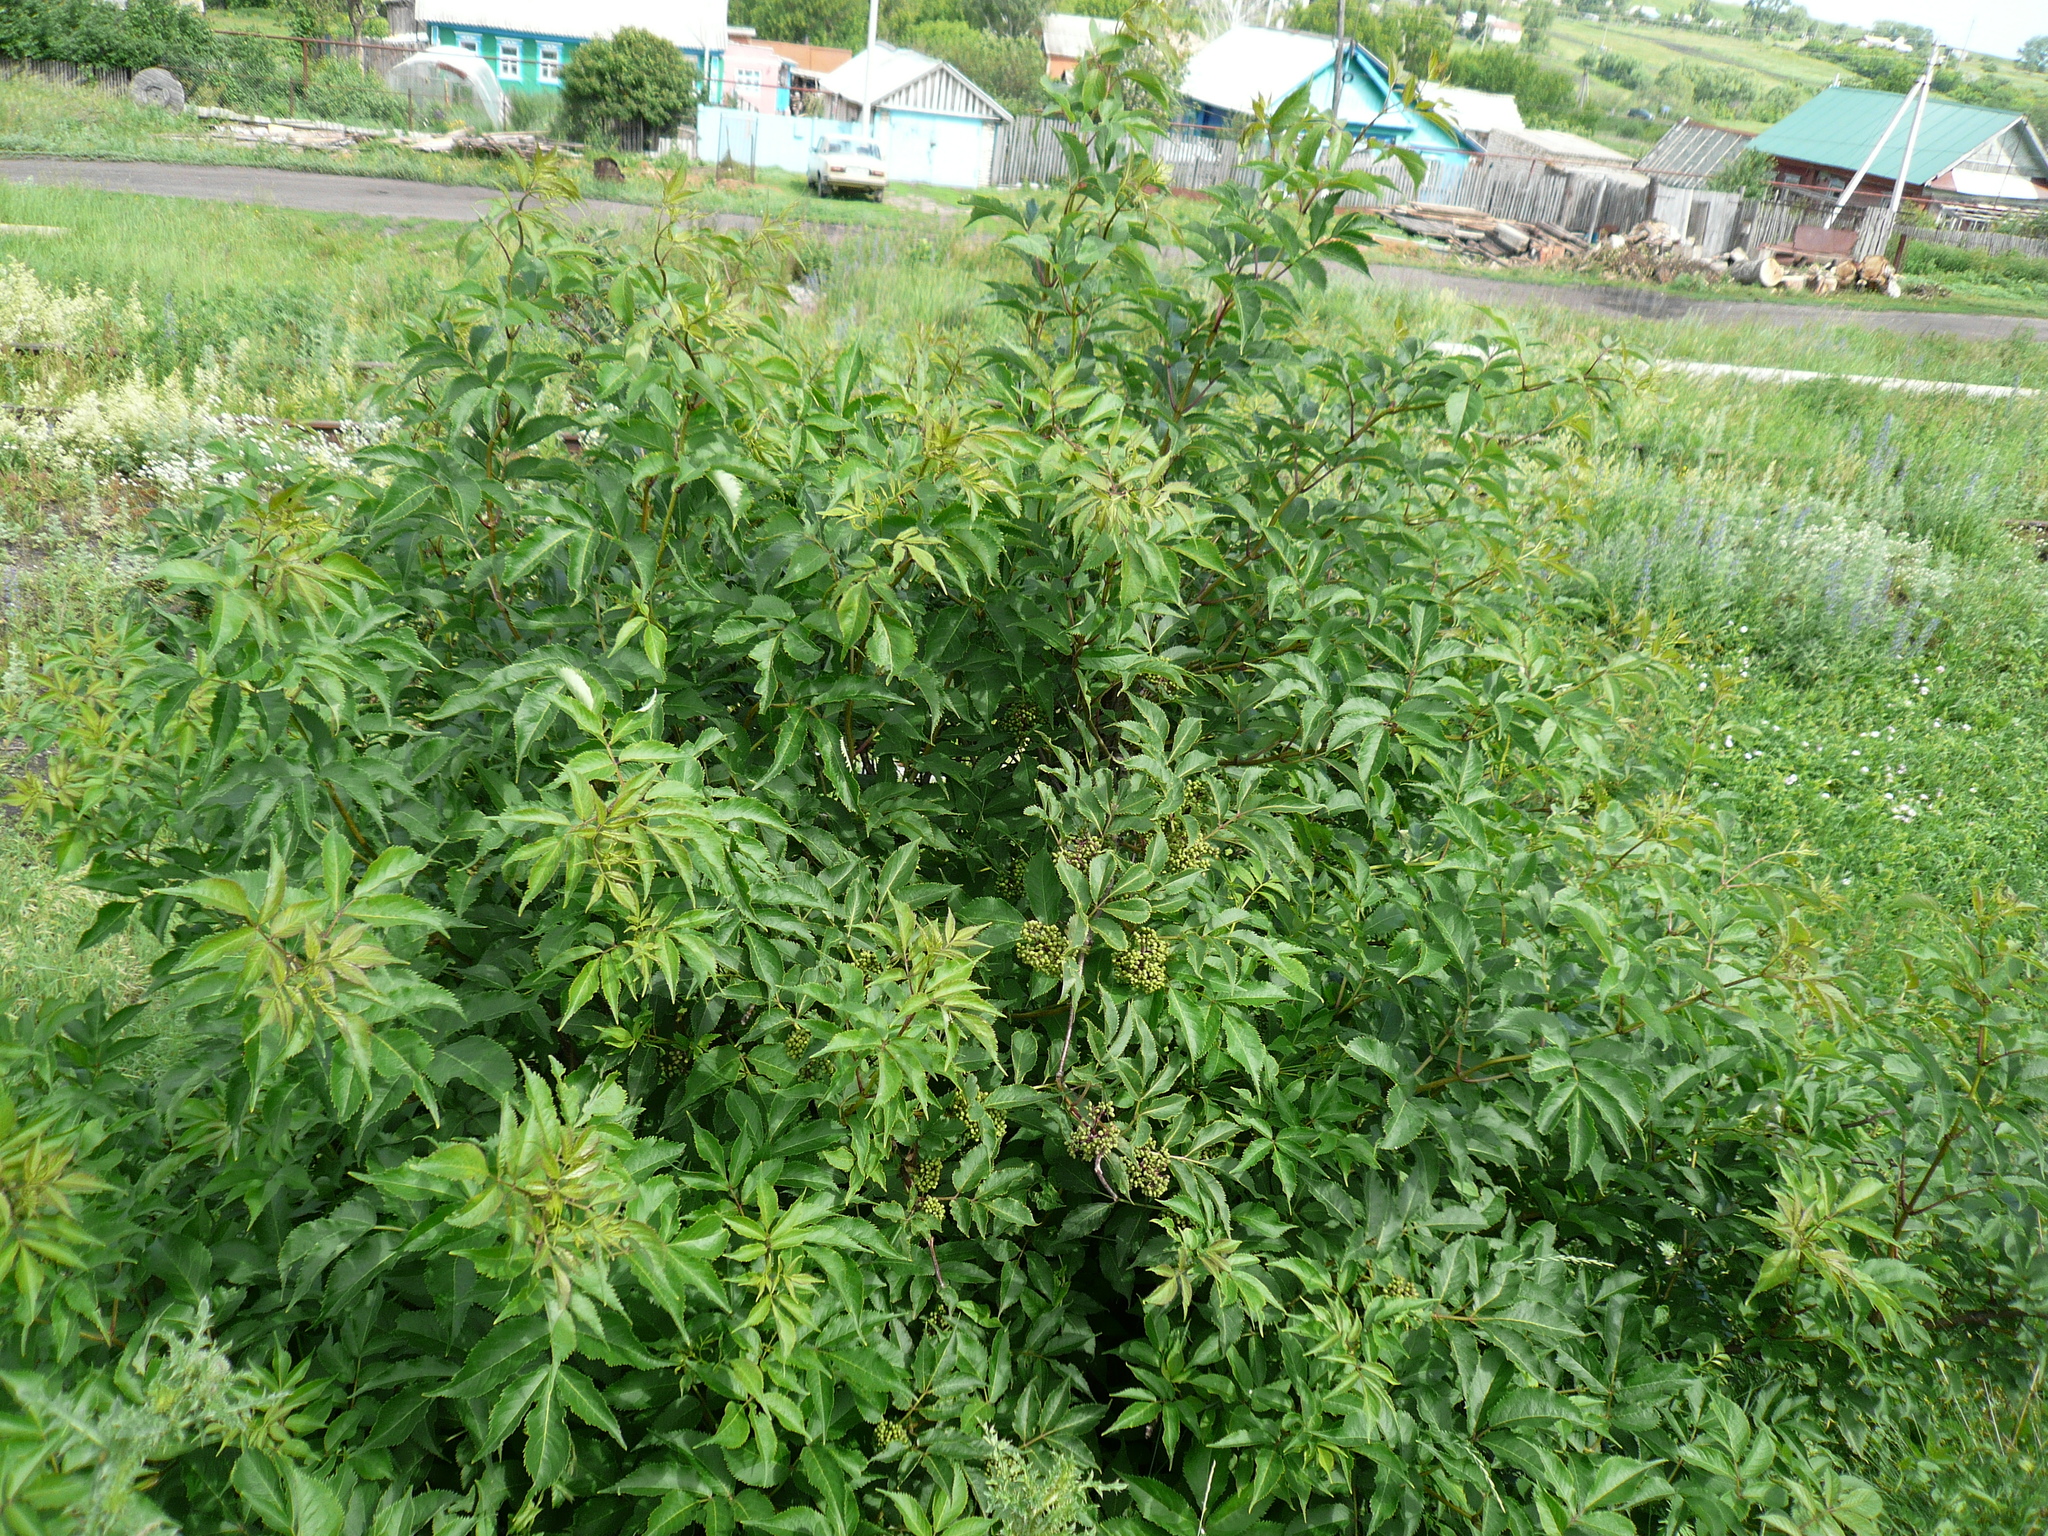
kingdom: Plantae
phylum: Tracheophyta
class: Magnoliopsida
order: Dipsacales
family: Viburnaceae
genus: Sambucus
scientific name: Sambucus racemosa
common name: Red-berried elder
